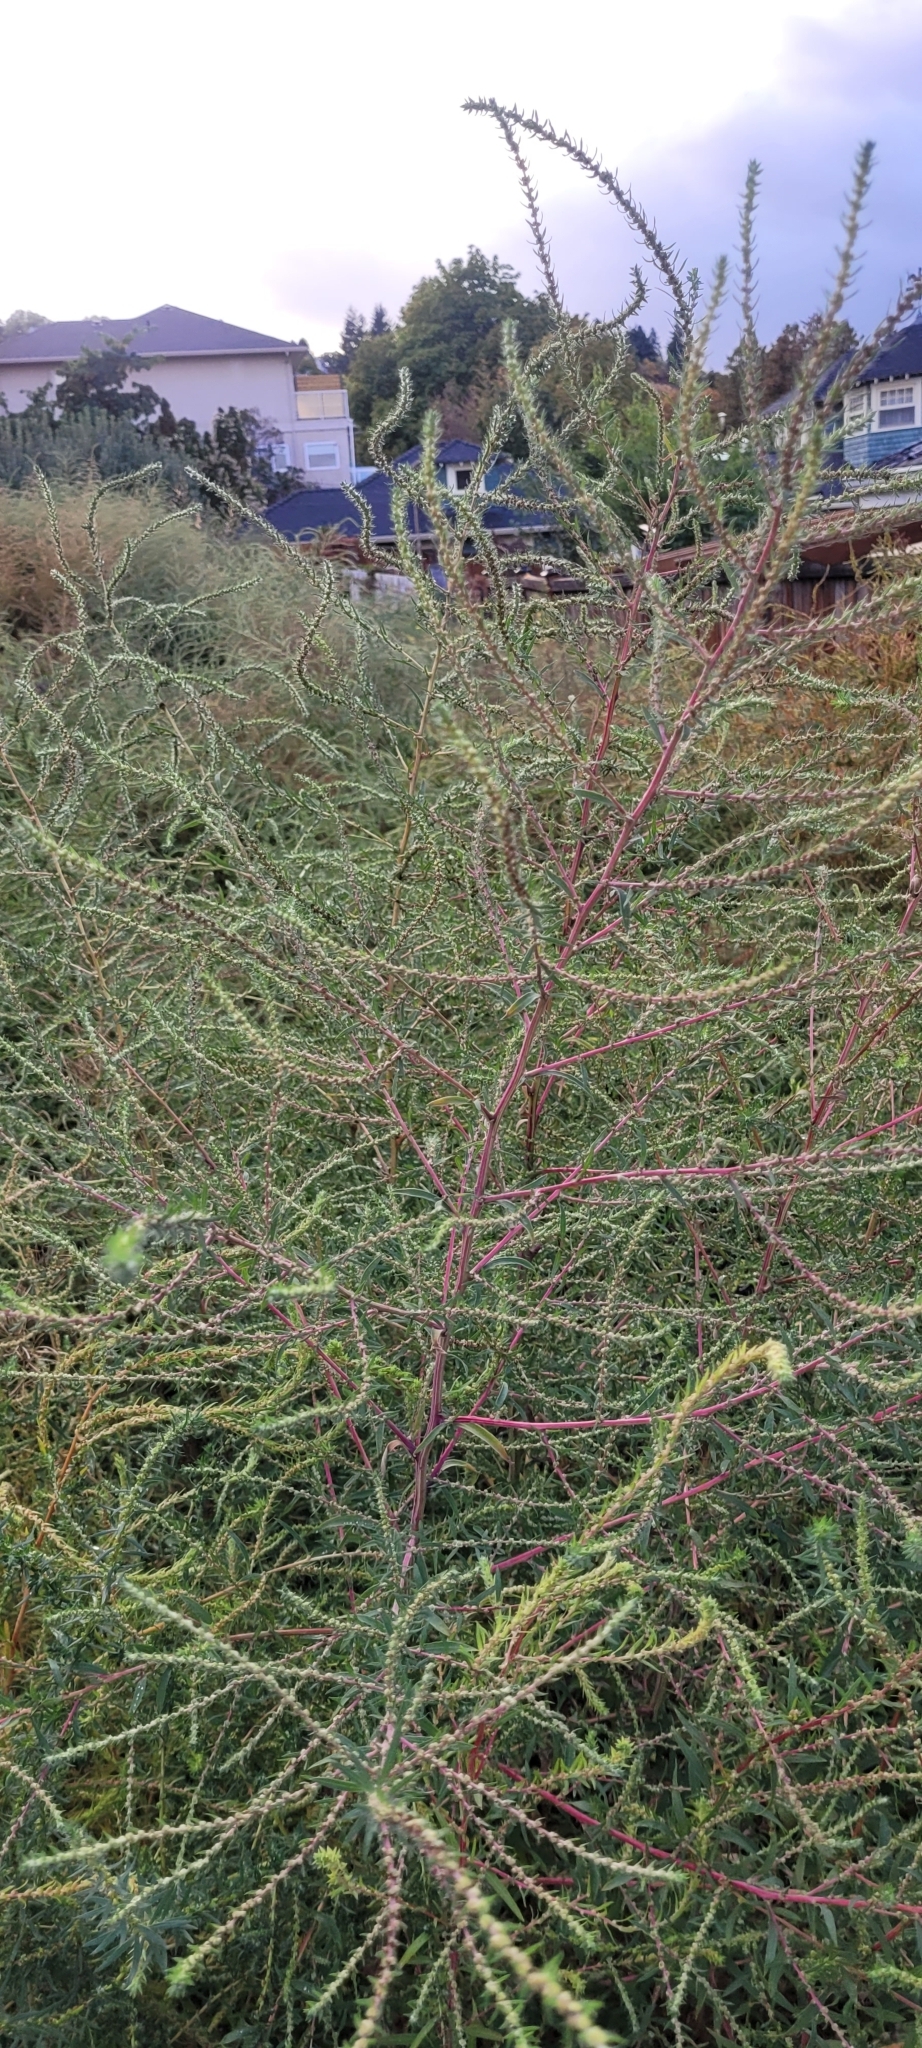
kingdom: Plantae
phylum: Tracheophyta
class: Magnoliopsida
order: Caryophyllales
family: Amaranthaceae
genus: Bassia
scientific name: Bassia scoparia
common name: Belvedere
